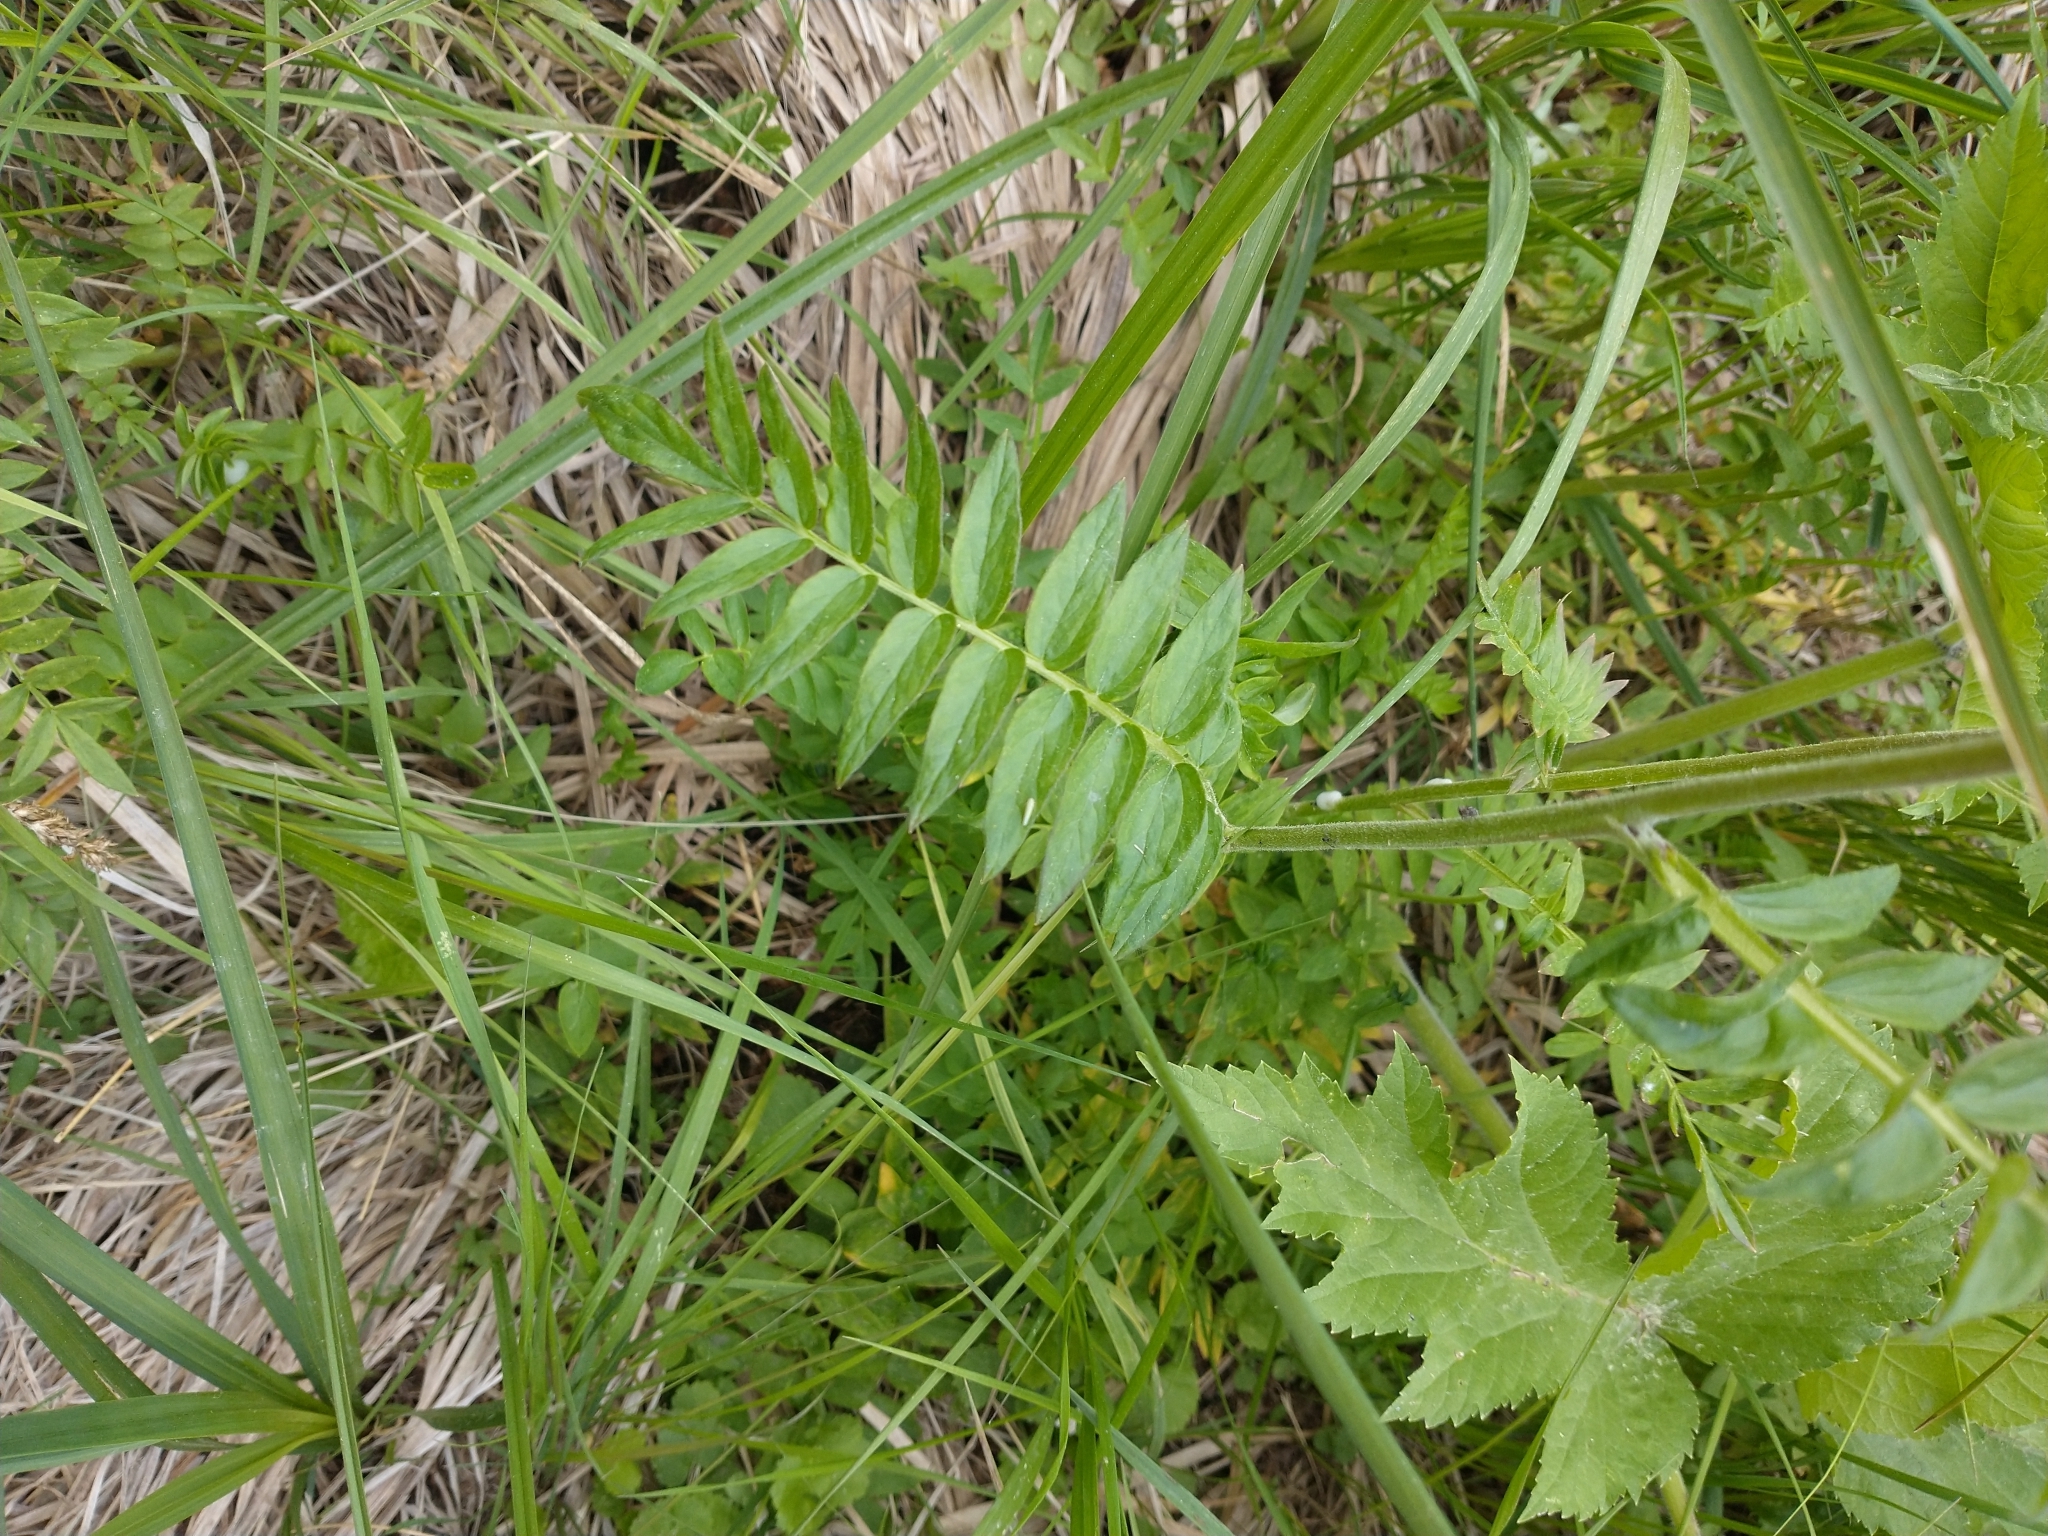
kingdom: Plantae
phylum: Tracheophyta
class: Magnoliopsida
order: Ericales
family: Polemoniaceae
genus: Polemonium
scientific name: Polemonium occidentale
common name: Western jacob's-ladder
